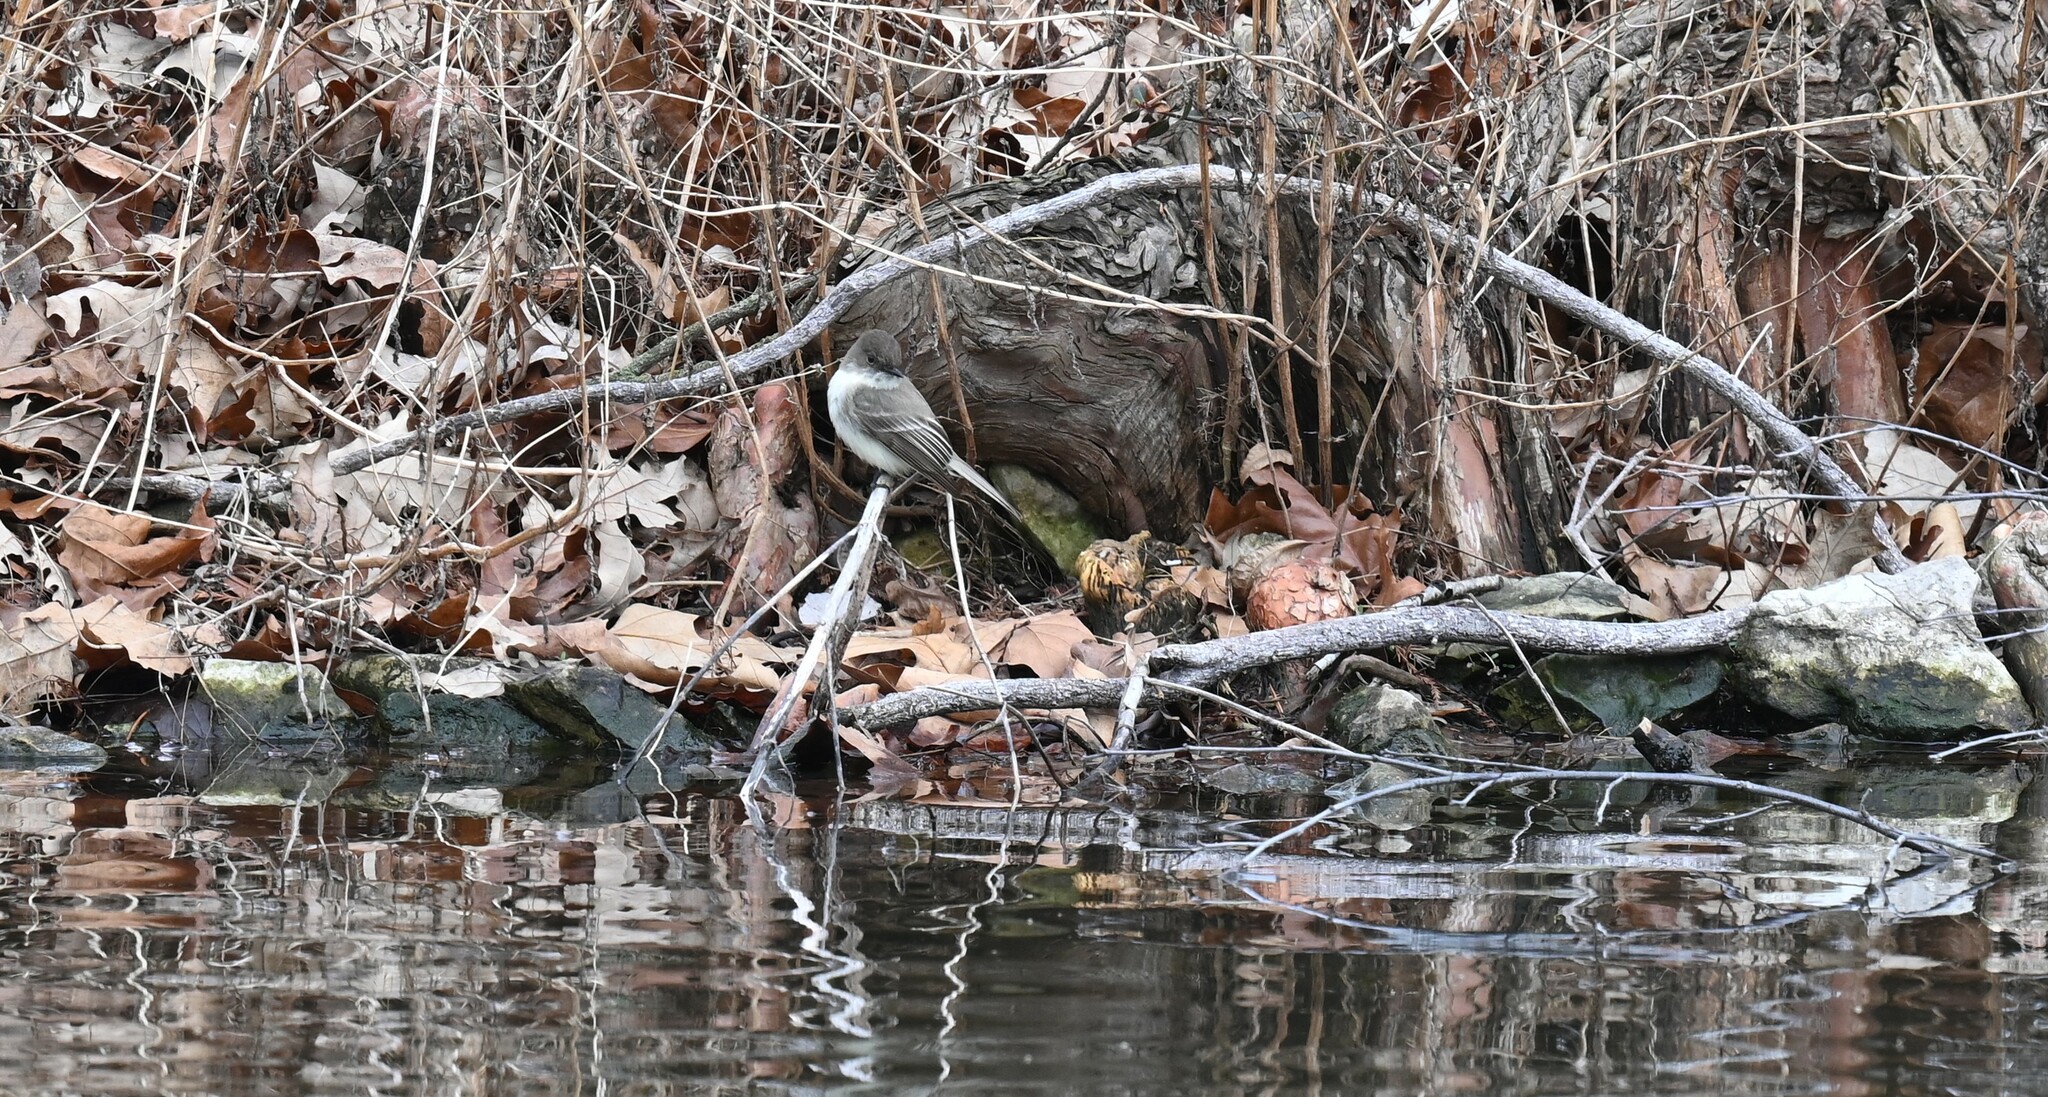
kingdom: Animalia
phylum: Chordata
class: Aves
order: Passeriformes
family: Tyrannidae
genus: Sayornis
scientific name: Sayornis phoebe
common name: Eastern phoebe
